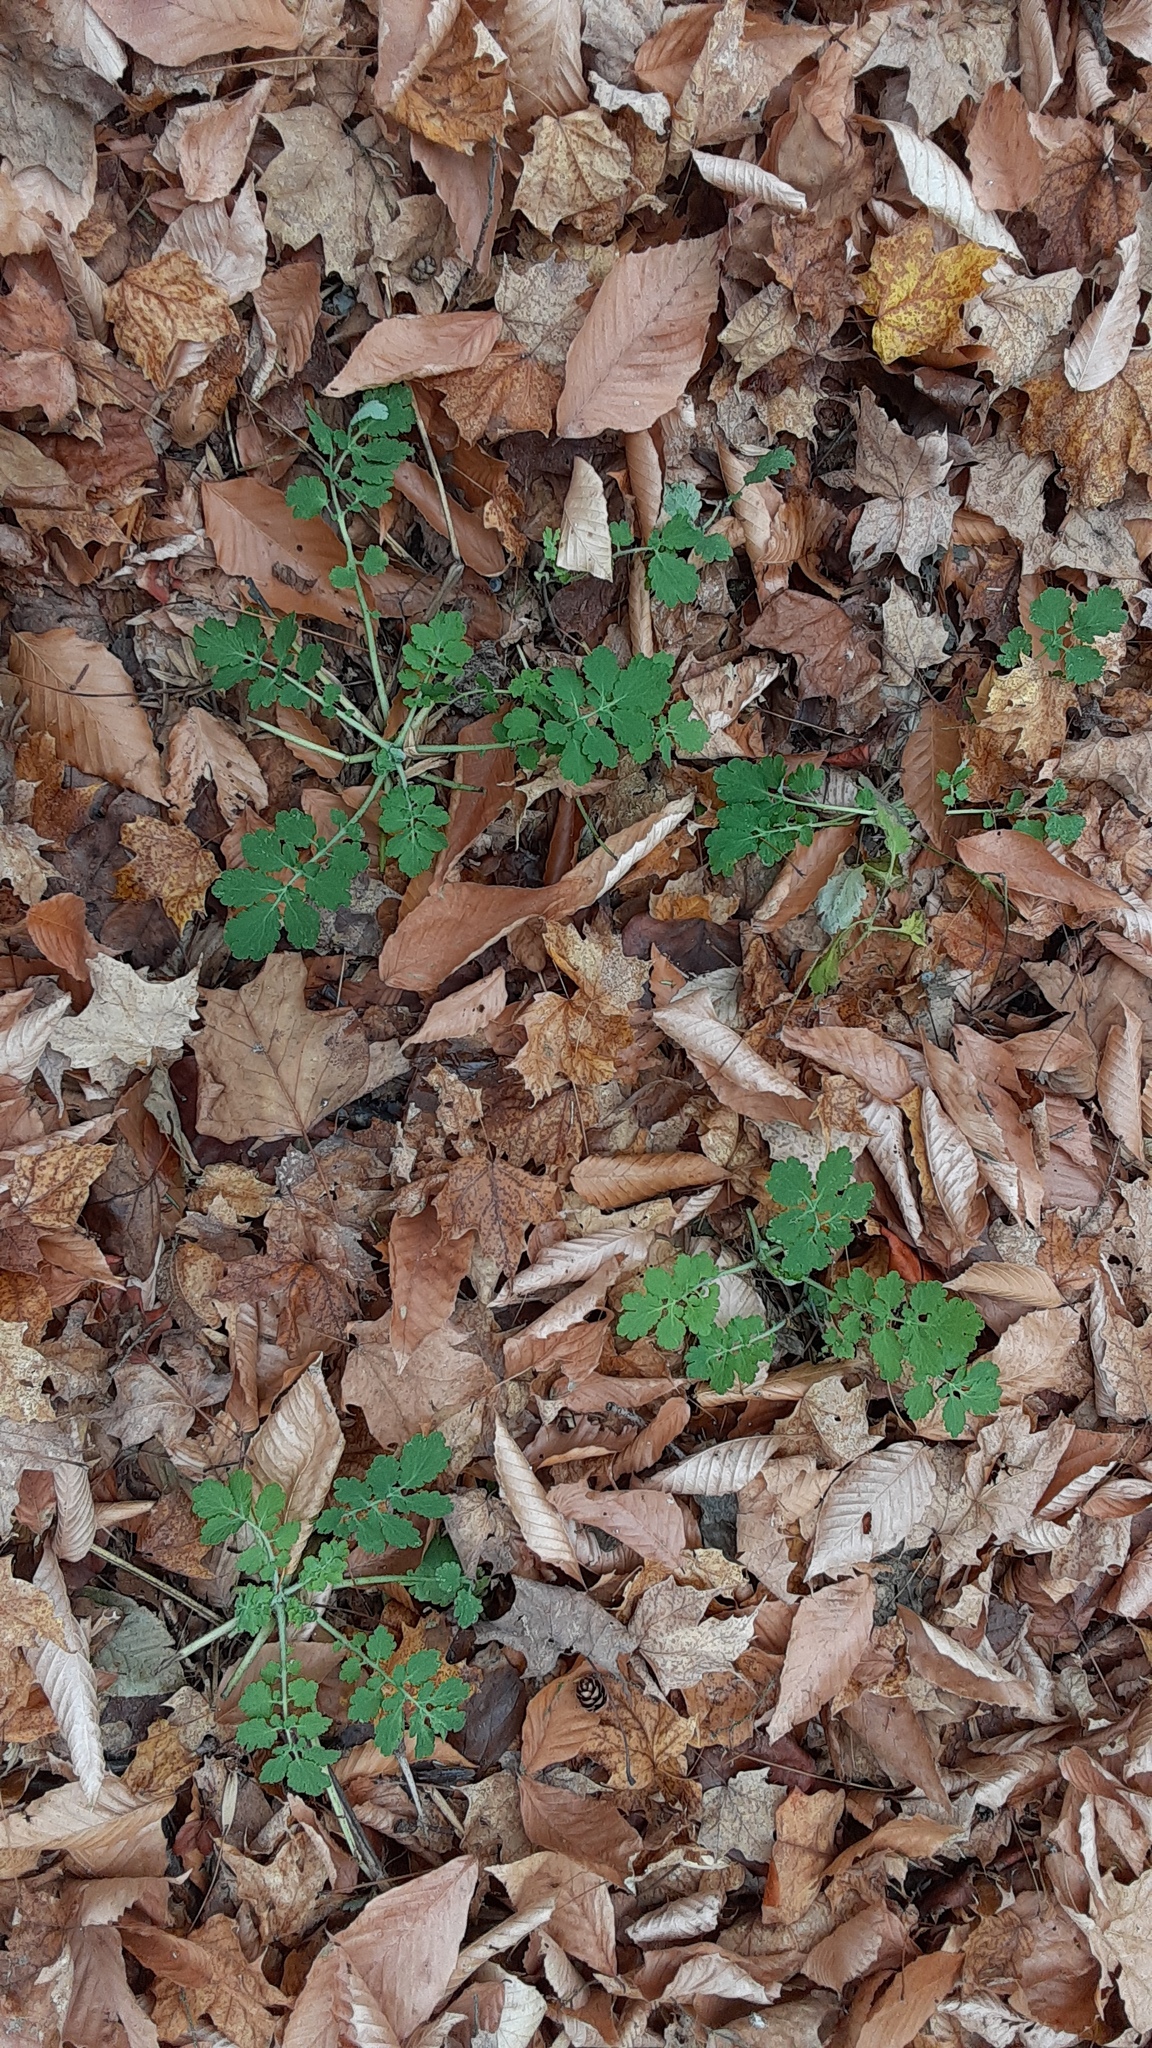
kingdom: Plantae
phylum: Tracheophyta
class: Magnoliopsida
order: Ranunculales
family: Papaveraceae
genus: Chelidonium
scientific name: Chelidonium majus
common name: Greater celandine
